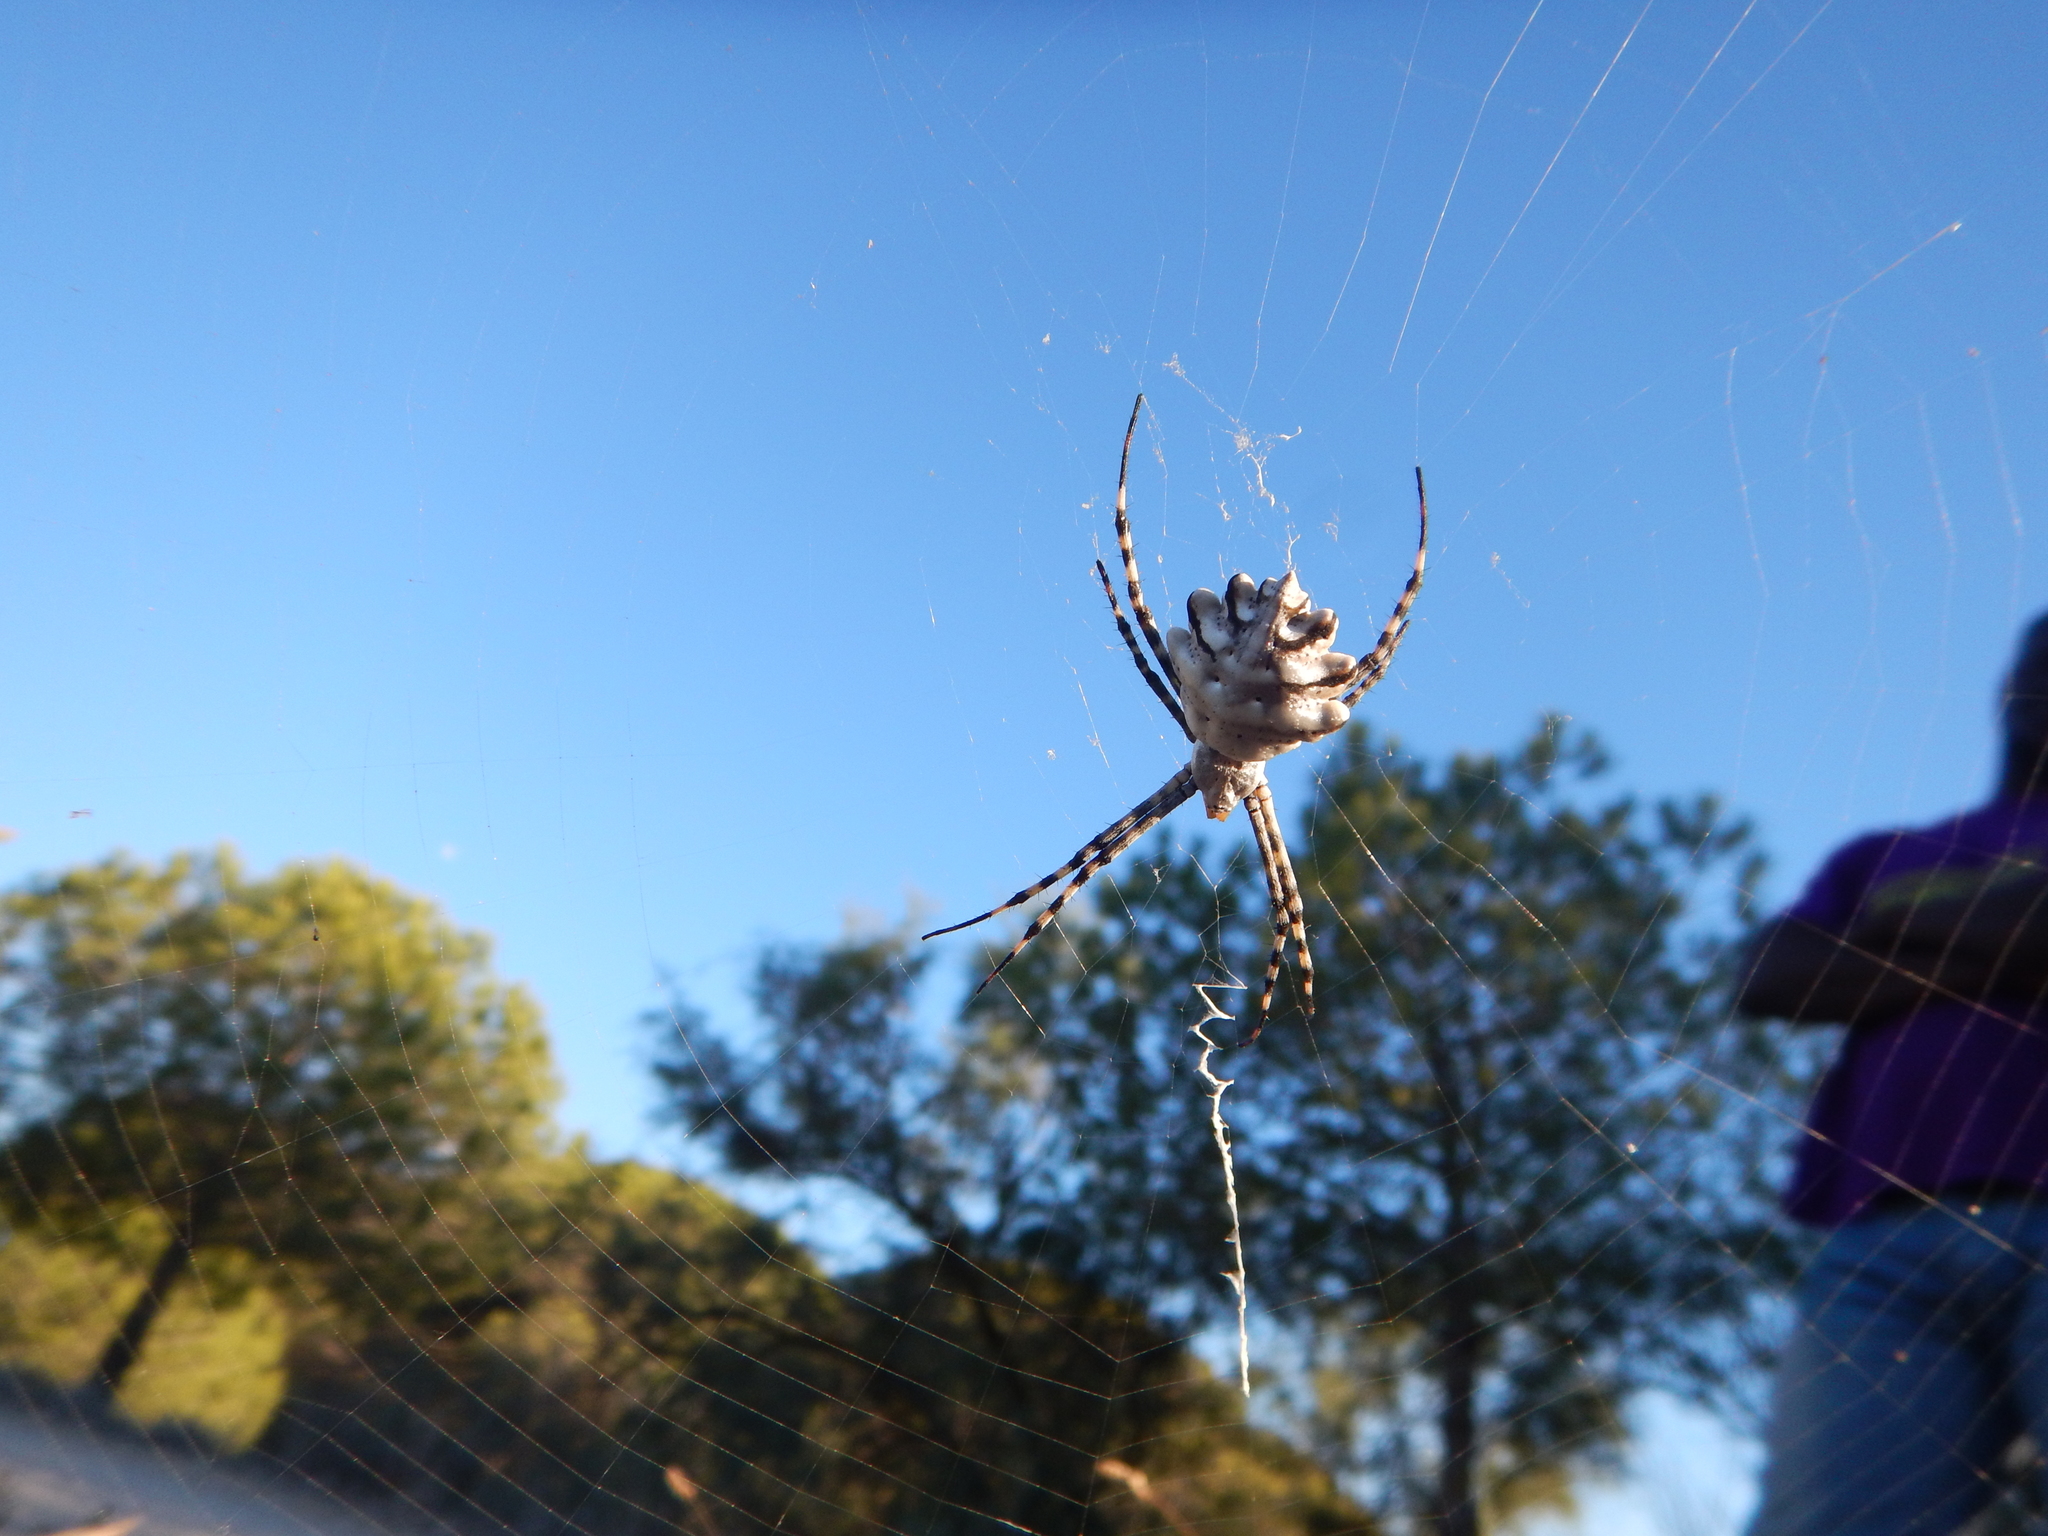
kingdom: Animalia
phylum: Arthropoda
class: Arachnida
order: Araneae
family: Araneidae
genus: Argiope
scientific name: Argiope lobata
